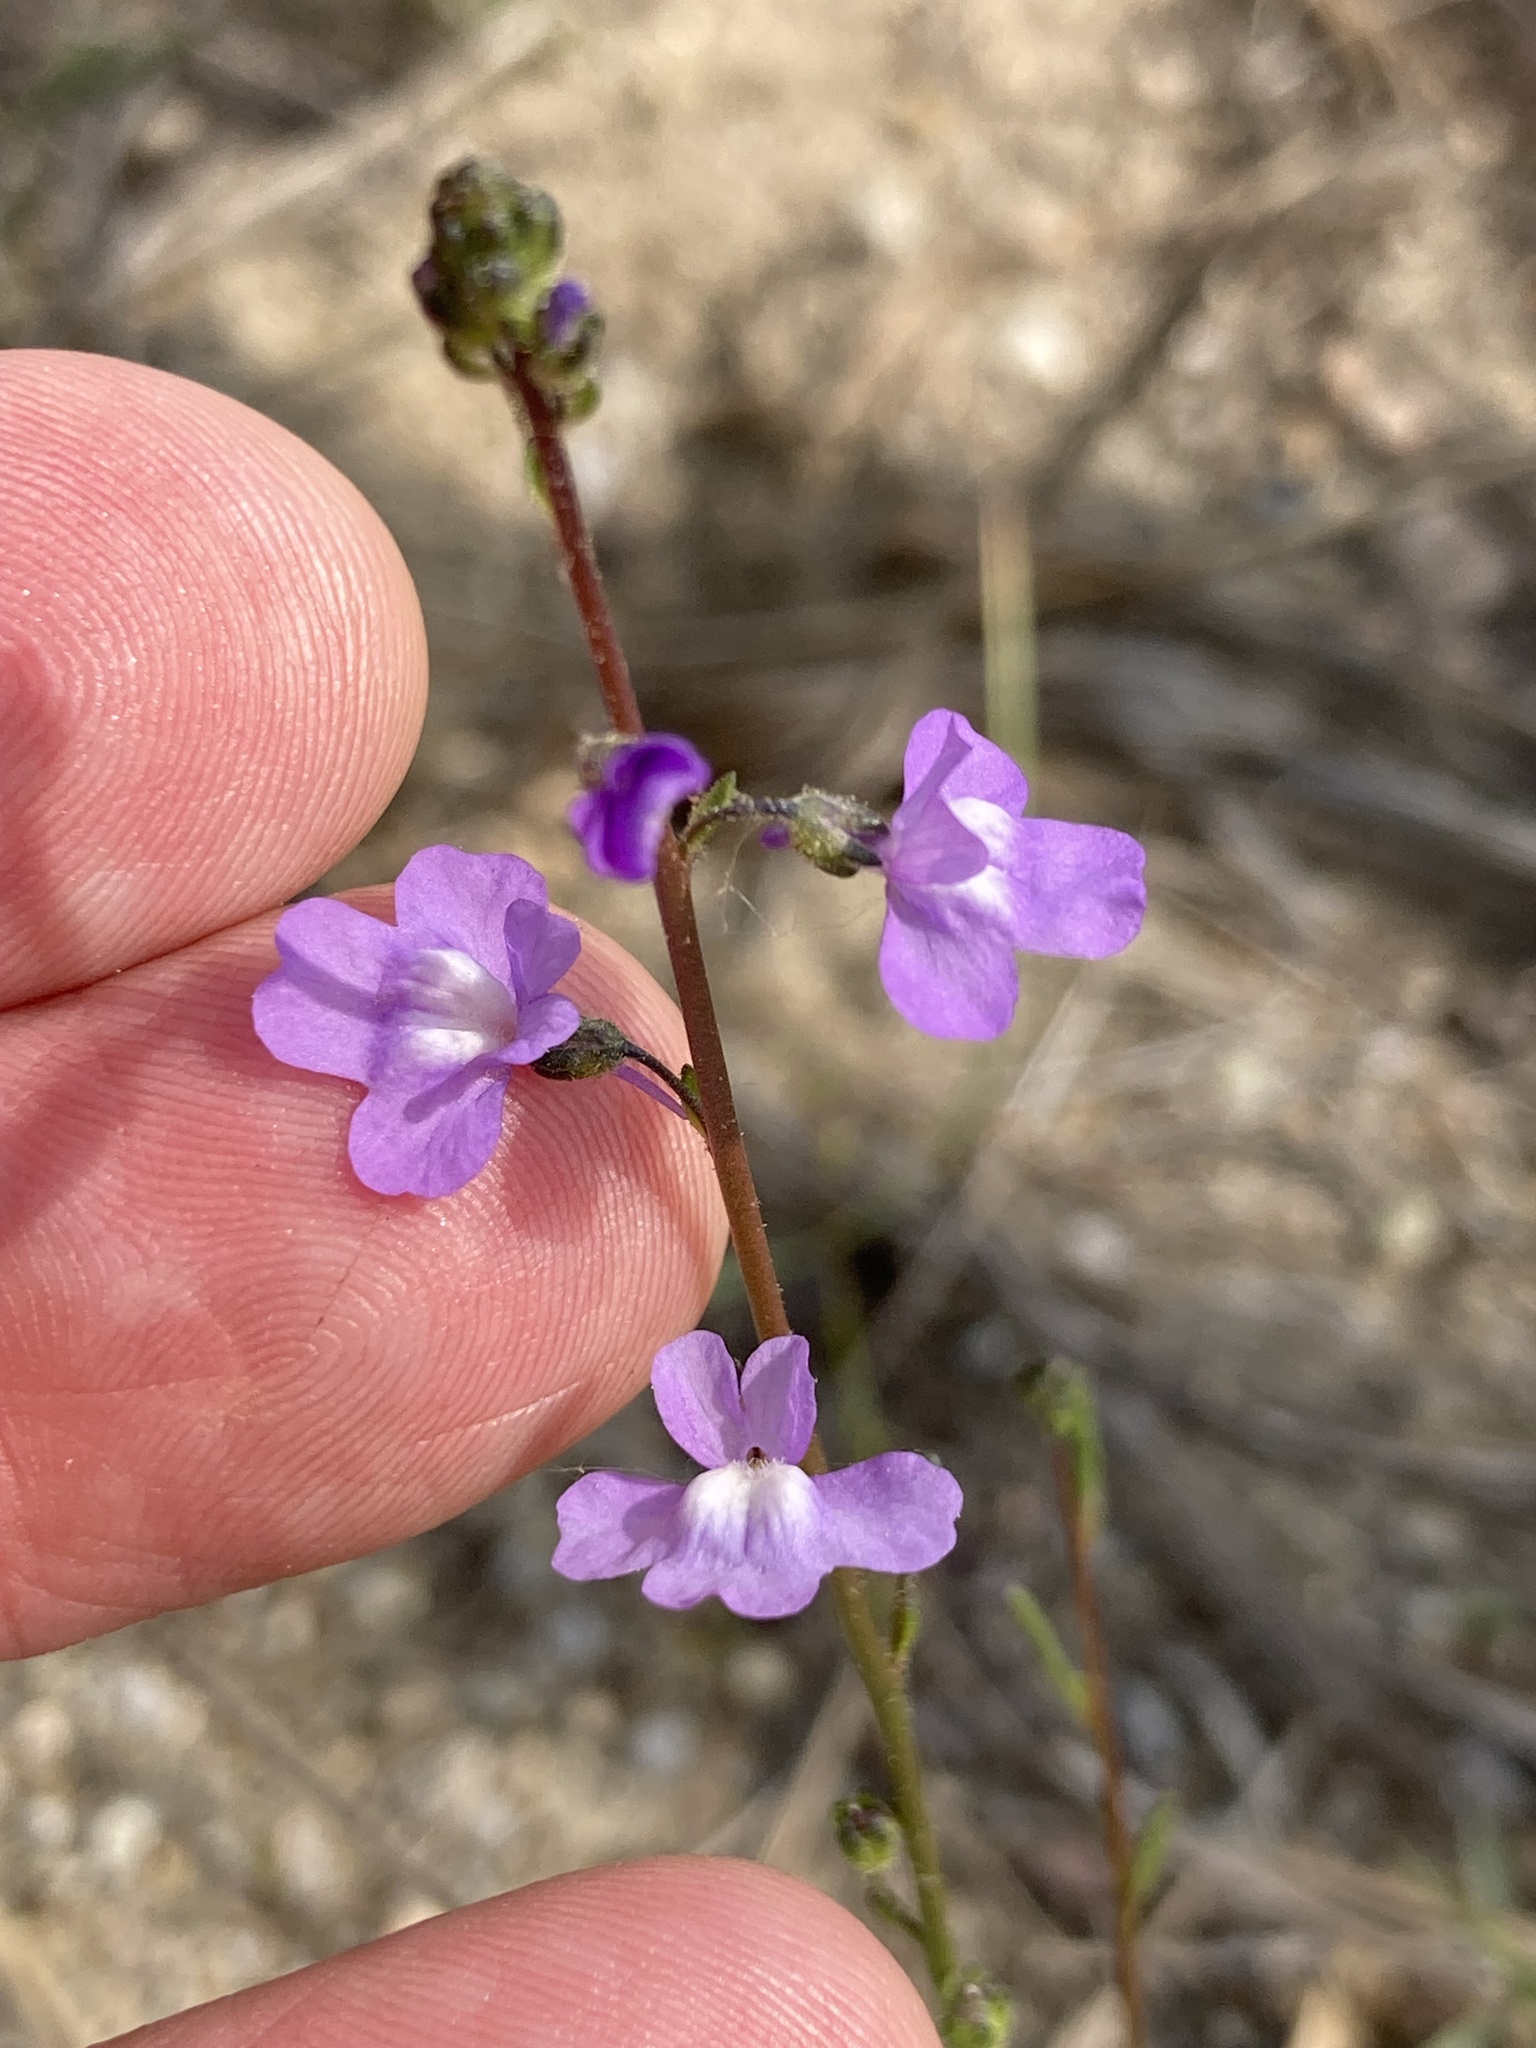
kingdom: Plantae
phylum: Tracheophyta
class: Magnoliopsida
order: Lamiales
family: Plantaginaceae
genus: Nuttallanthus
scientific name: Nuttallanthus canadensis
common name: Blue toadflax
